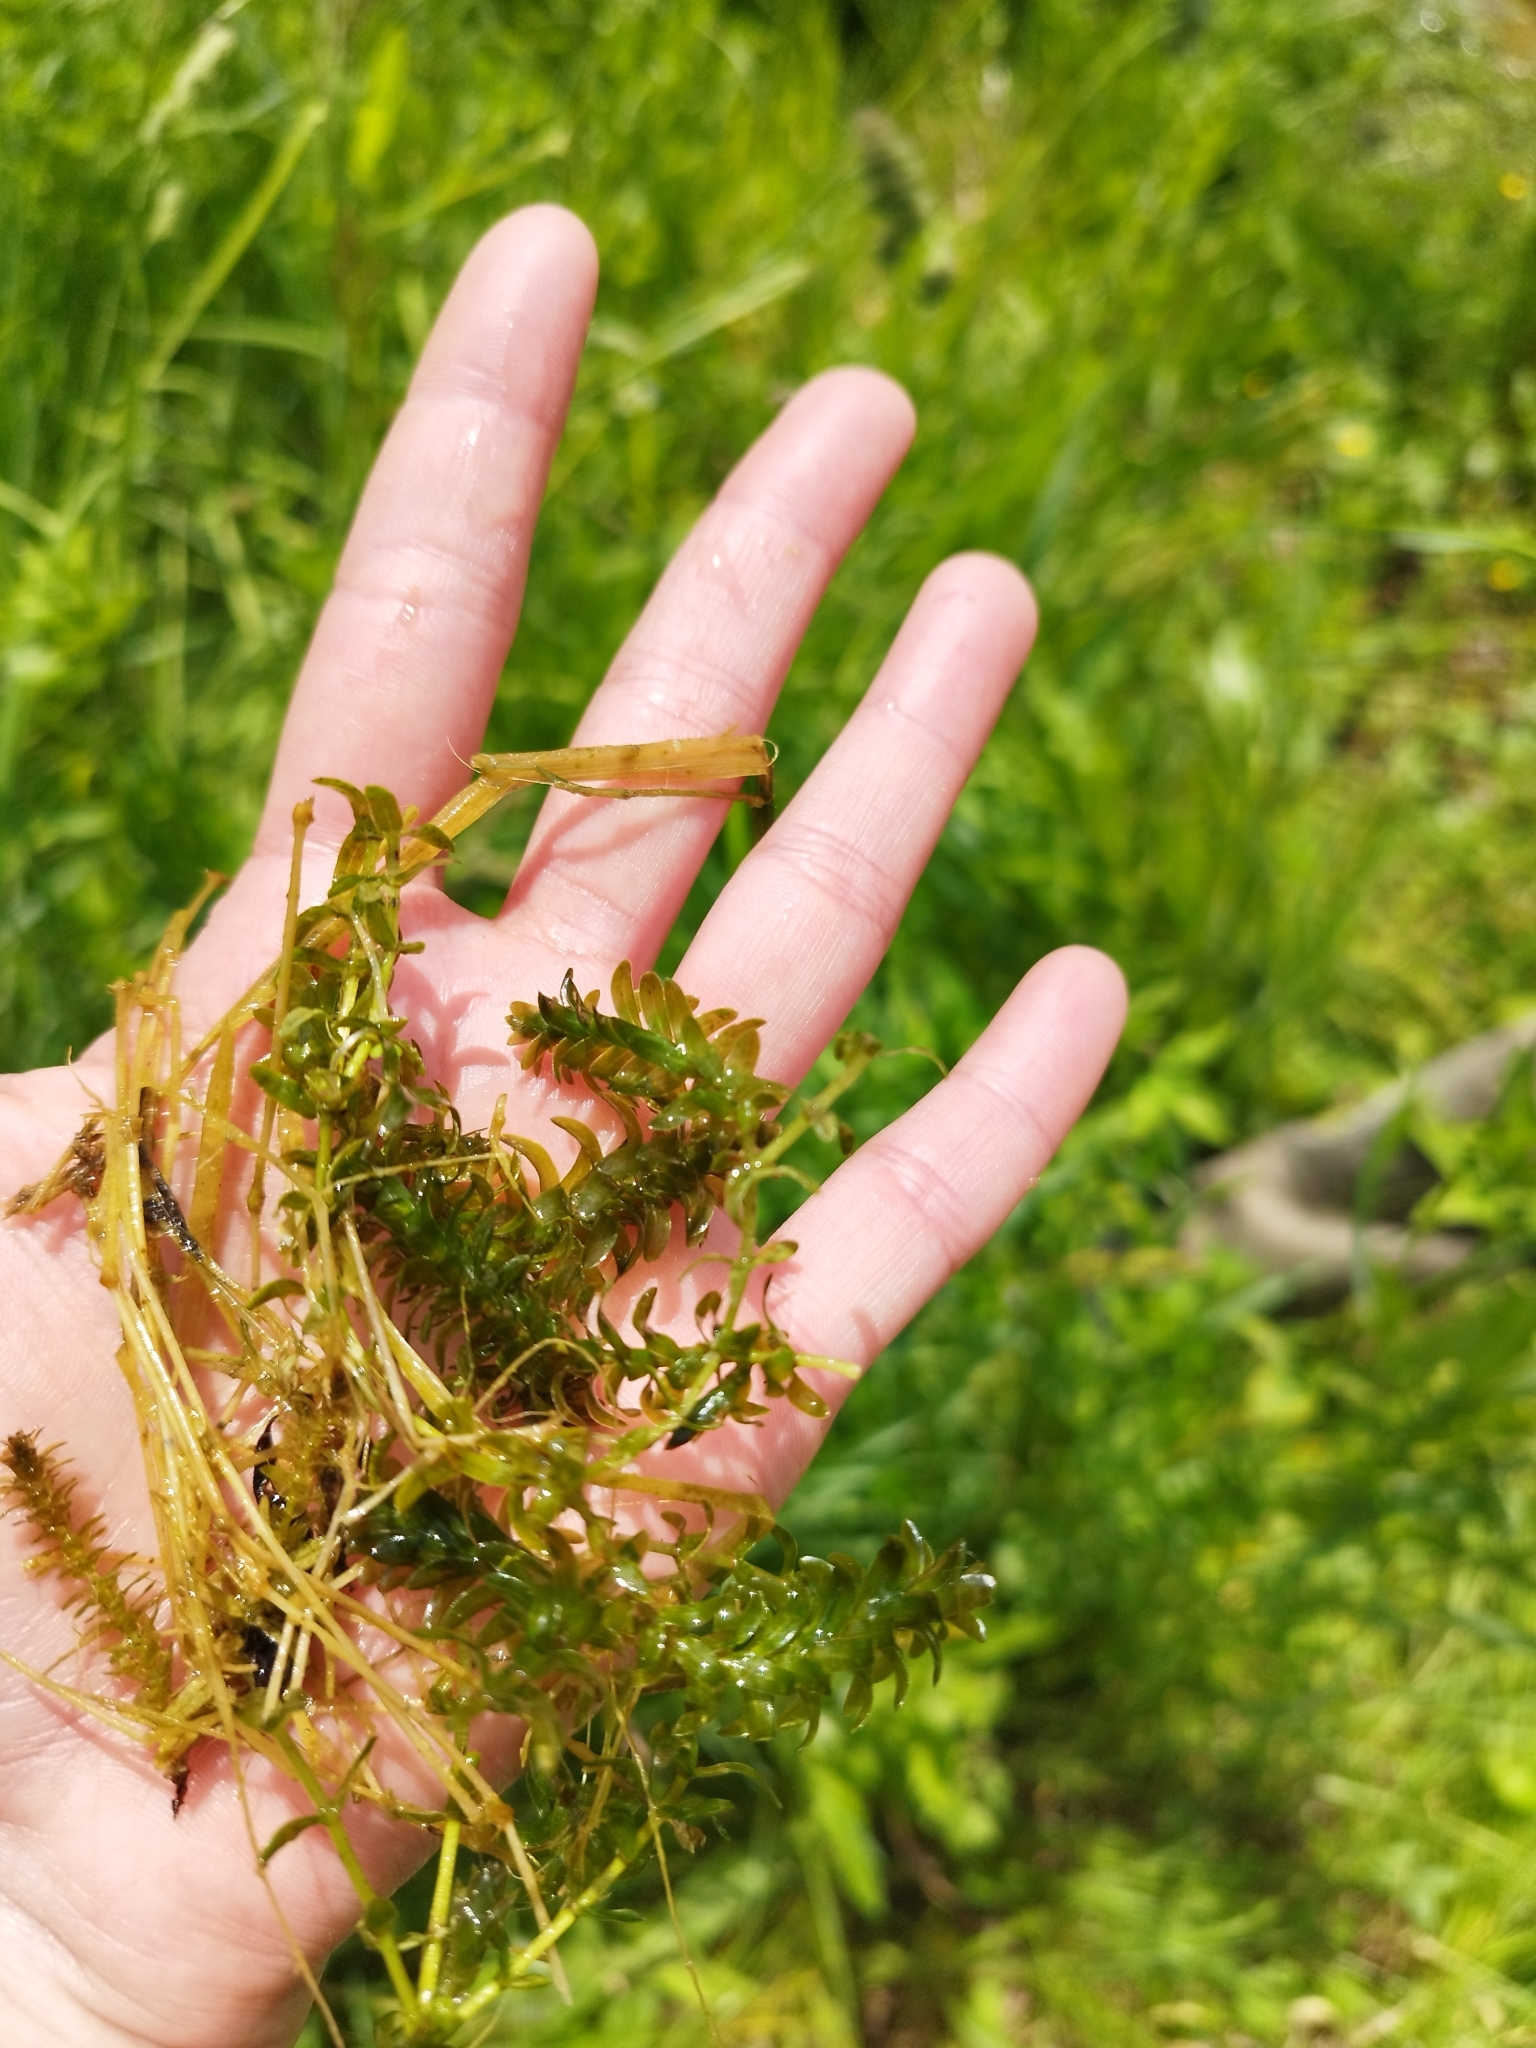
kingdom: Plantae
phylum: Tracheophyta
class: Liliopsida
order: Alismatales
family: Hydrocharitaceae
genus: Elodea
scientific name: Elodea canadensis
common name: Canadian waterweed
